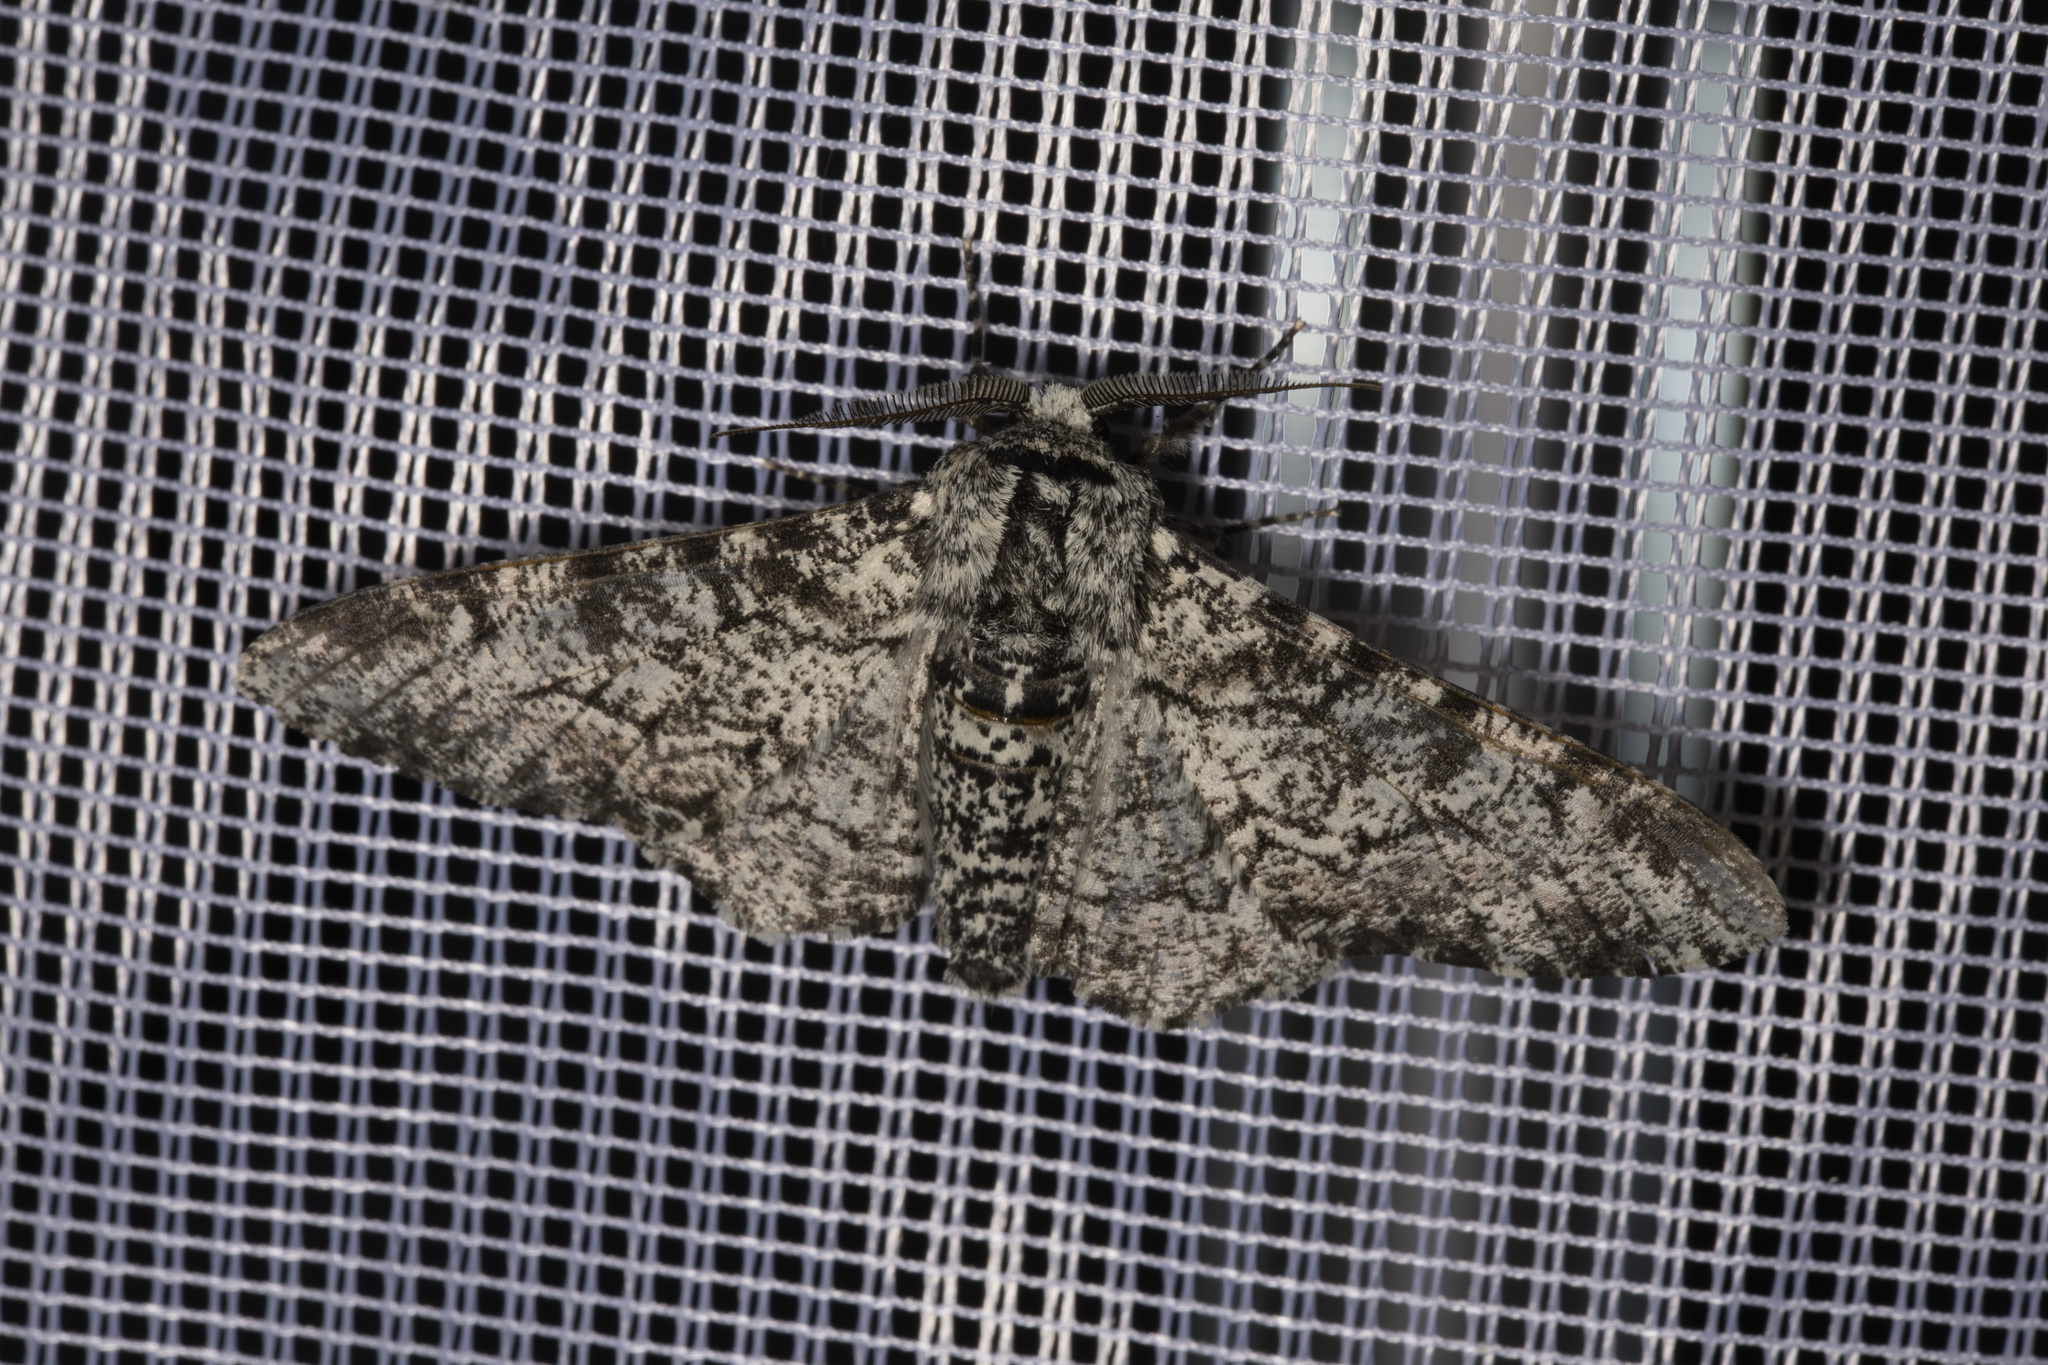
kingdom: Animalia
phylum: Arthropoda
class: Insecta
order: Lepidoptera
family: Geometridae
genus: Biston
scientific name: Biston betularia
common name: Peppered moth
